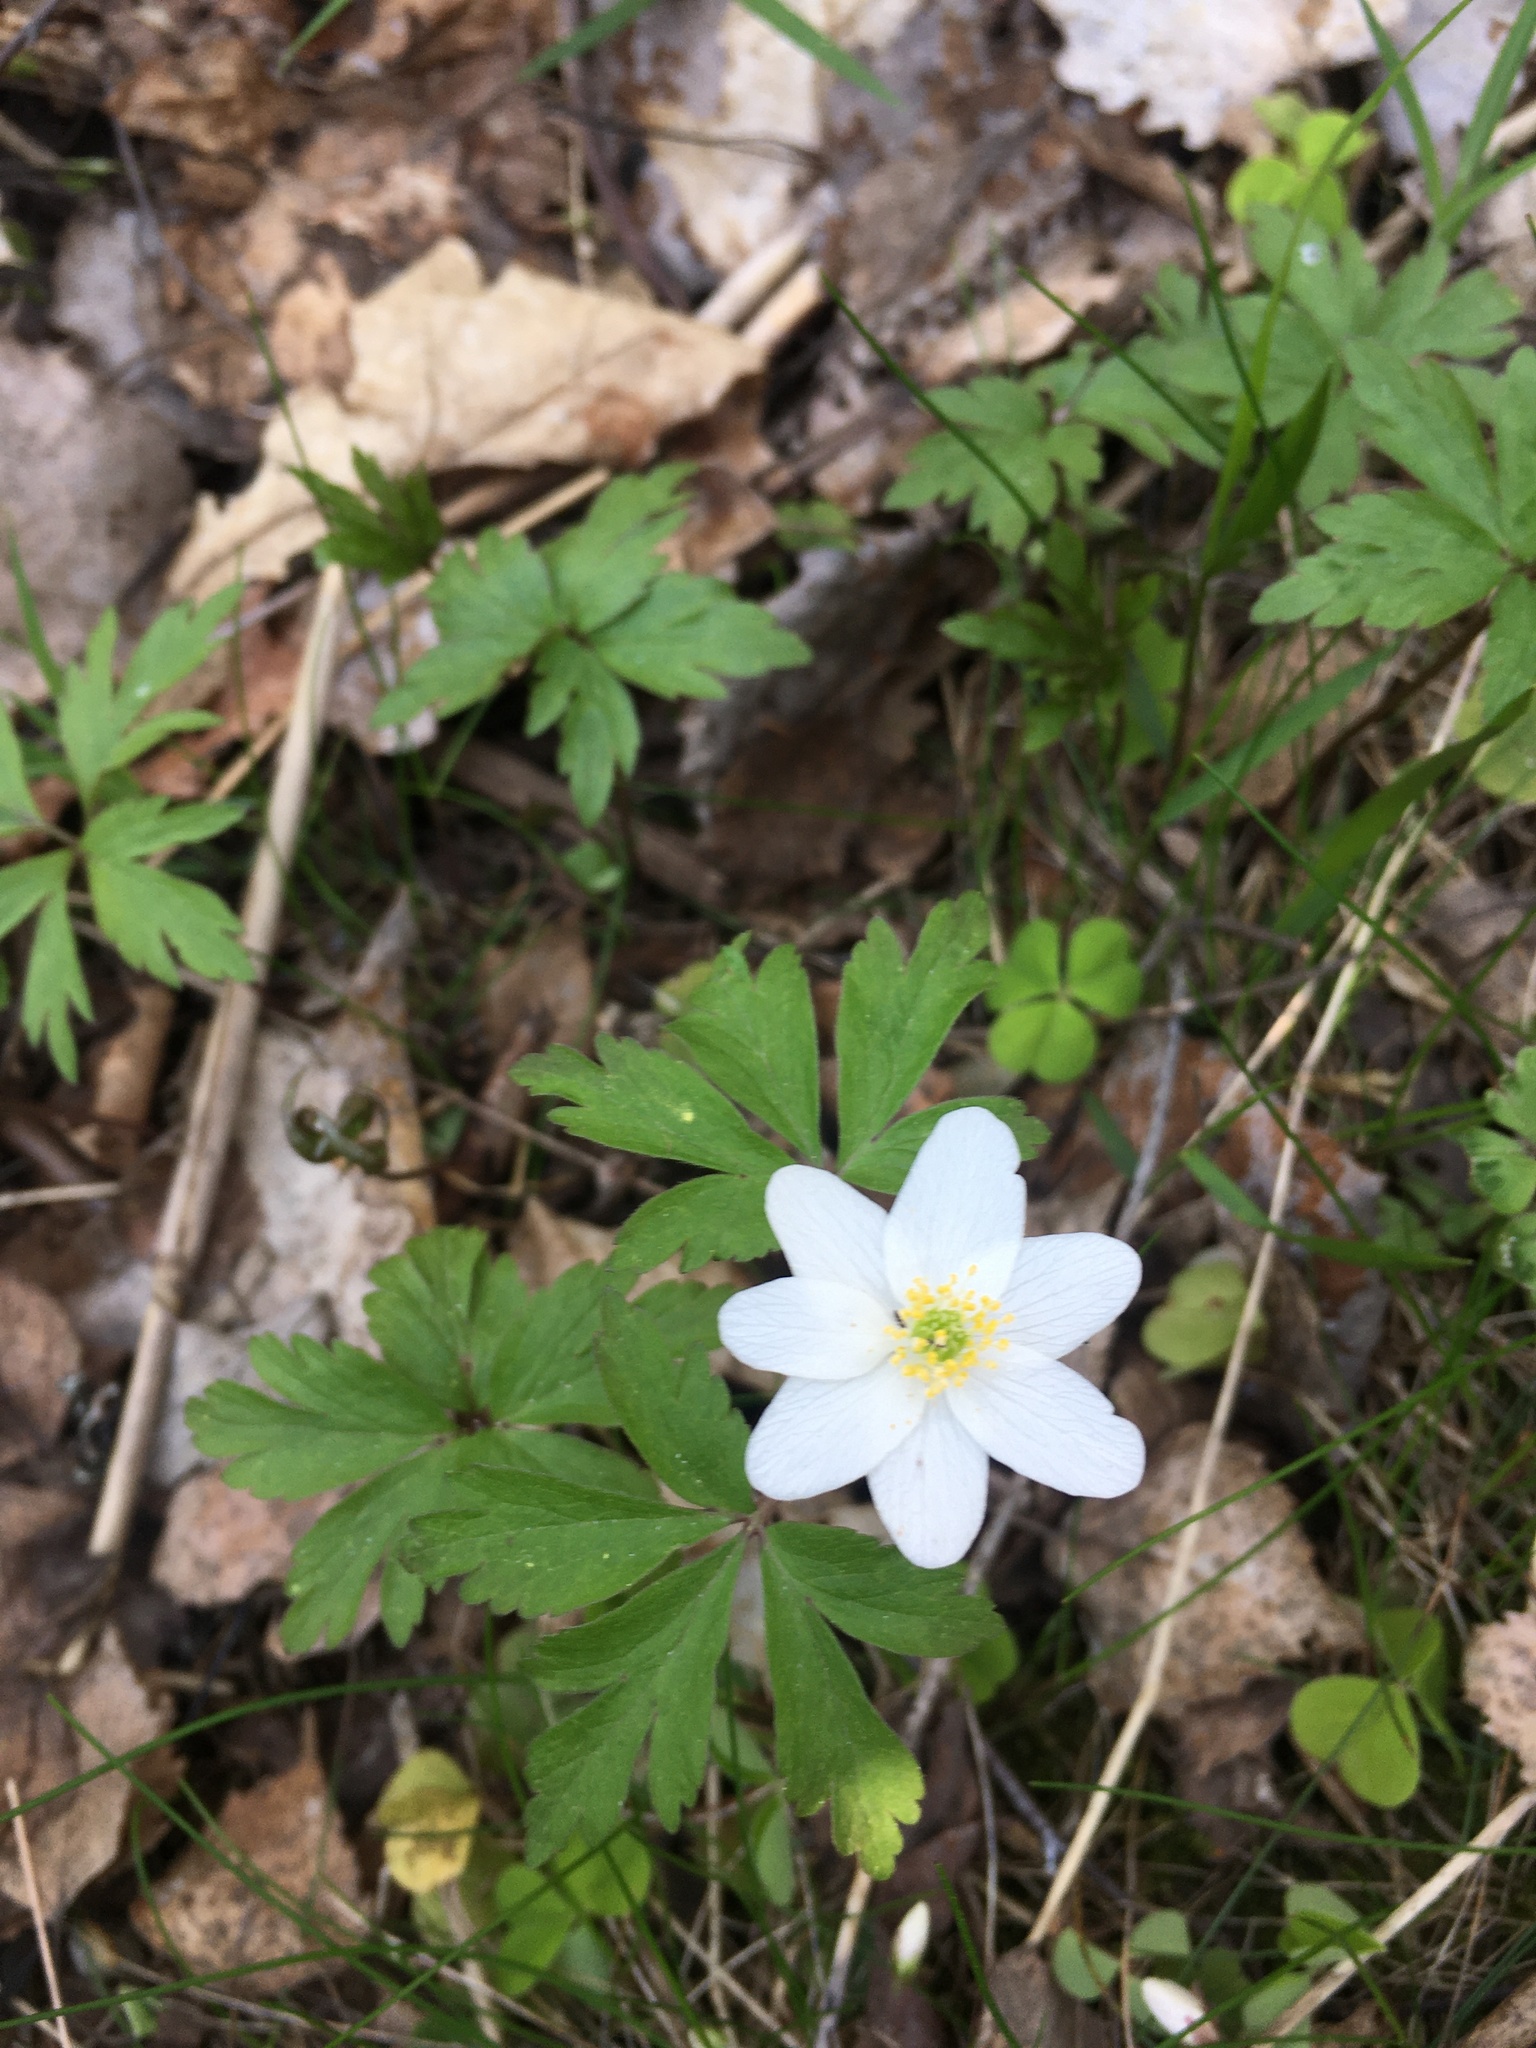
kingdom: Plantae
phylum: Tracheophyta
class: Magnoliopsida
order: Ranunculales
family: Ranunculaceae
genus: Anemone
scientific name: Anemone nemorosa
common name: Wood anemone
